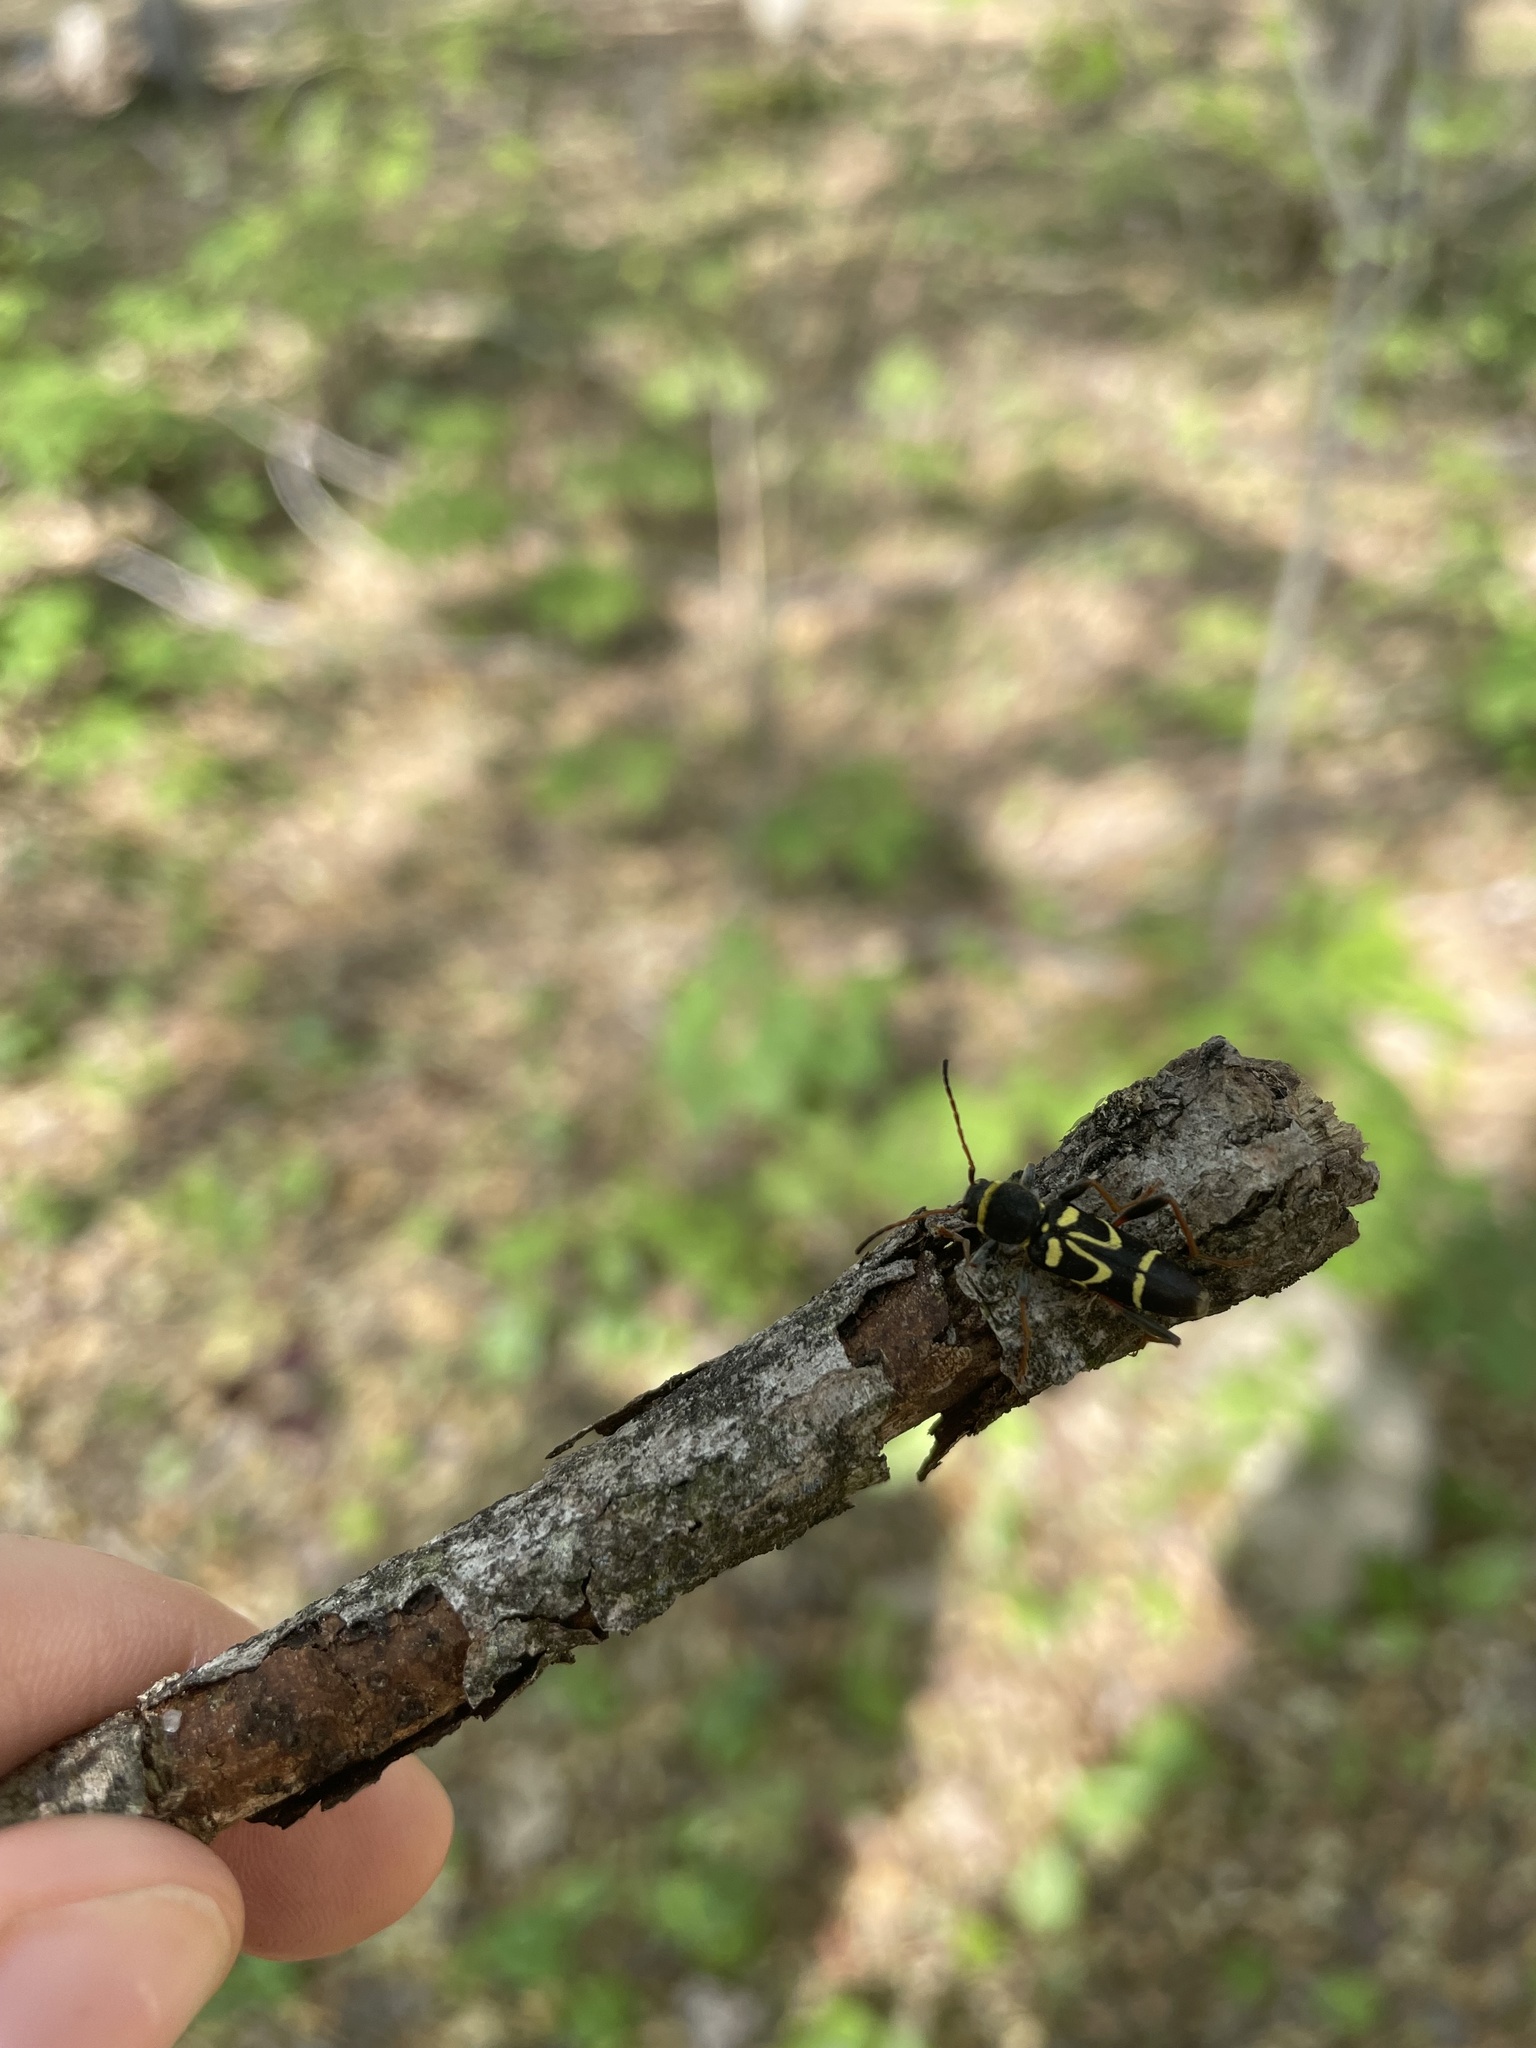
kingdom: Animalia
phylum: Arthropoda
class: Insecta
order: Coleoptera
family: Cerambycidae
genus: Clytus
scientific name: Clytus ruricola
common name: Round-necked longhorn beetle
